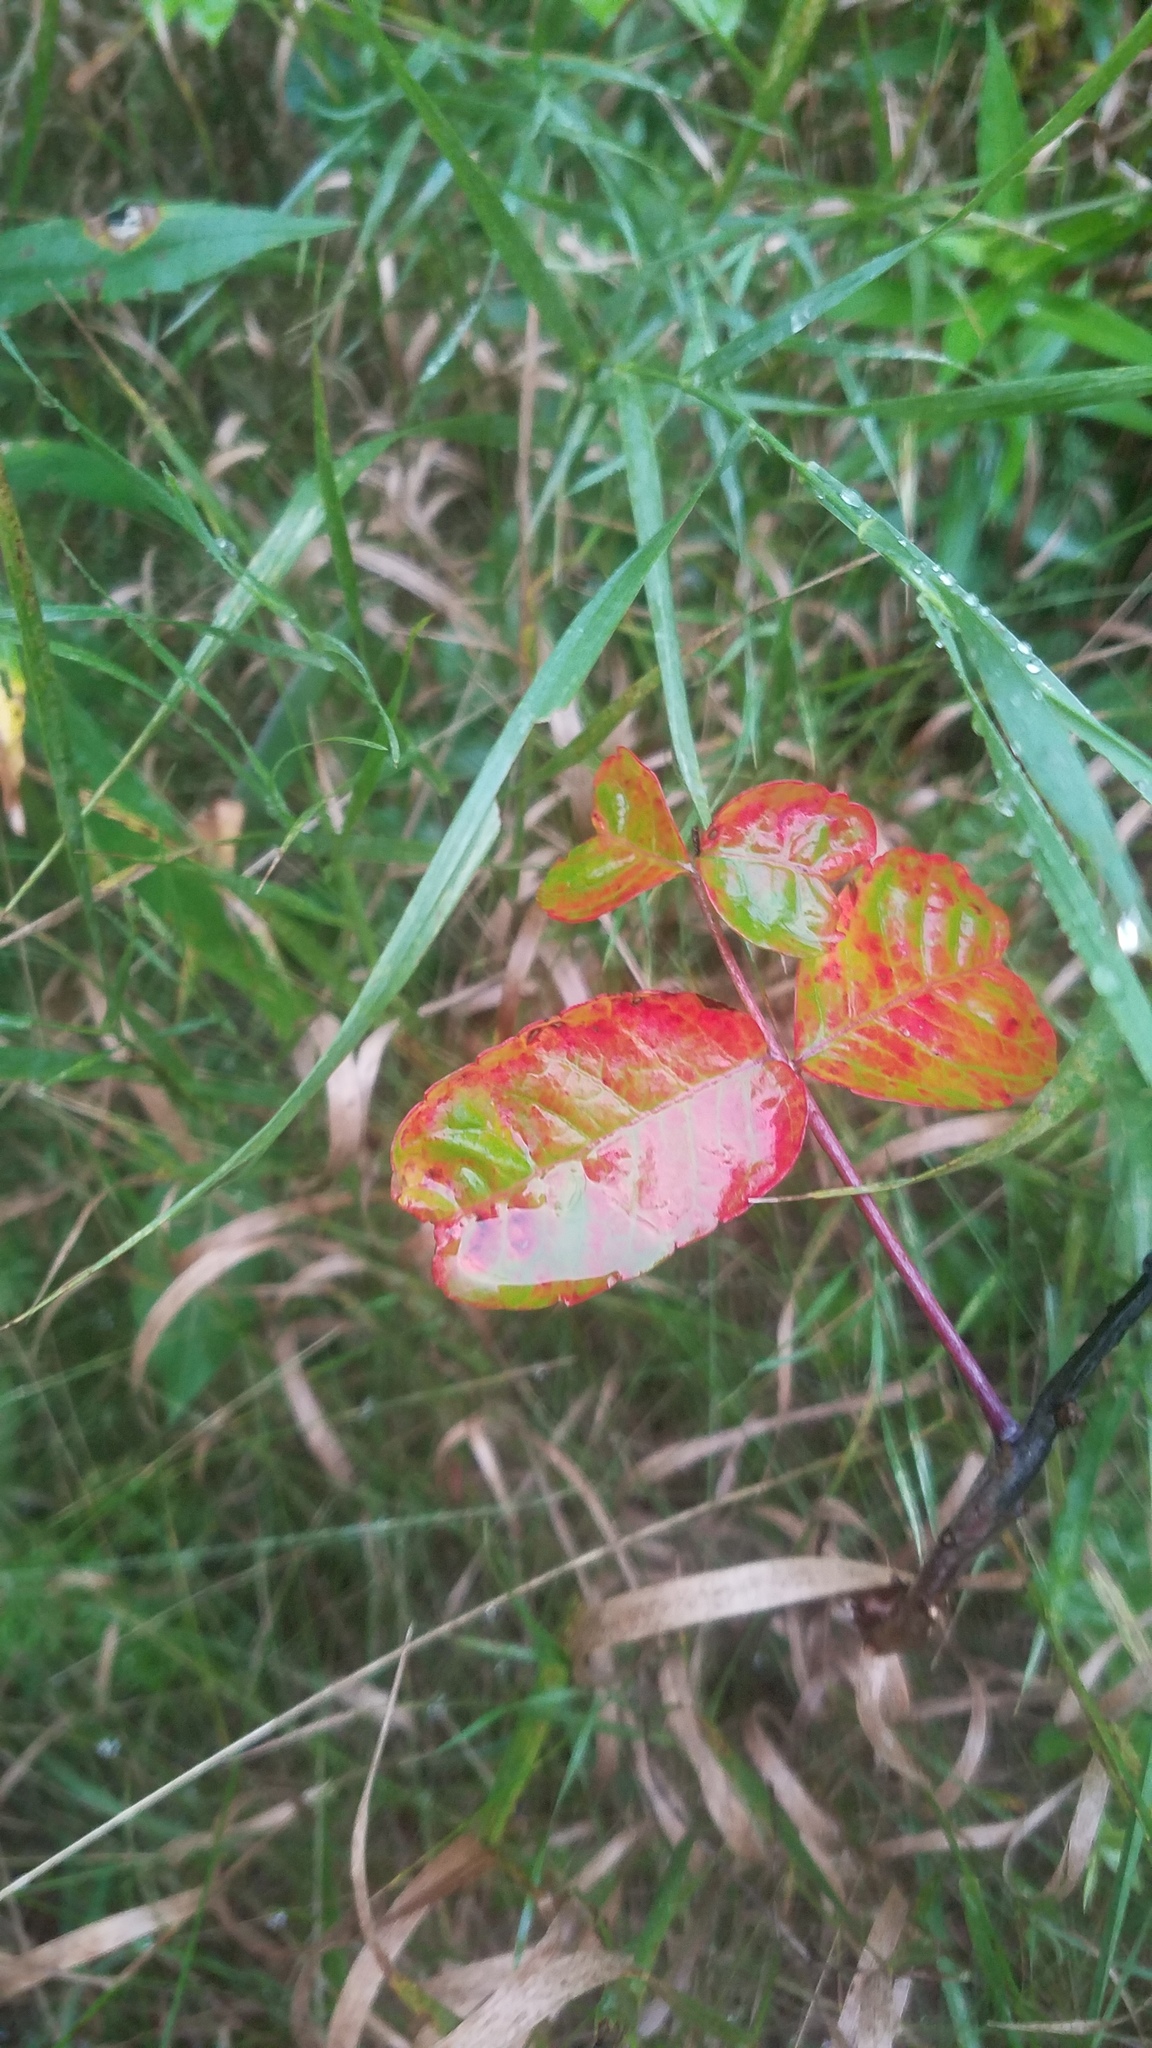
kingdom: Plantae
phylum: Tracheophyta
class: Magnoliopsida
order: Sapindales
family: Anacardiaceae
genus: Toxicodendron
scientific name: Toxicodendron radicans
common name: Poison ivy
